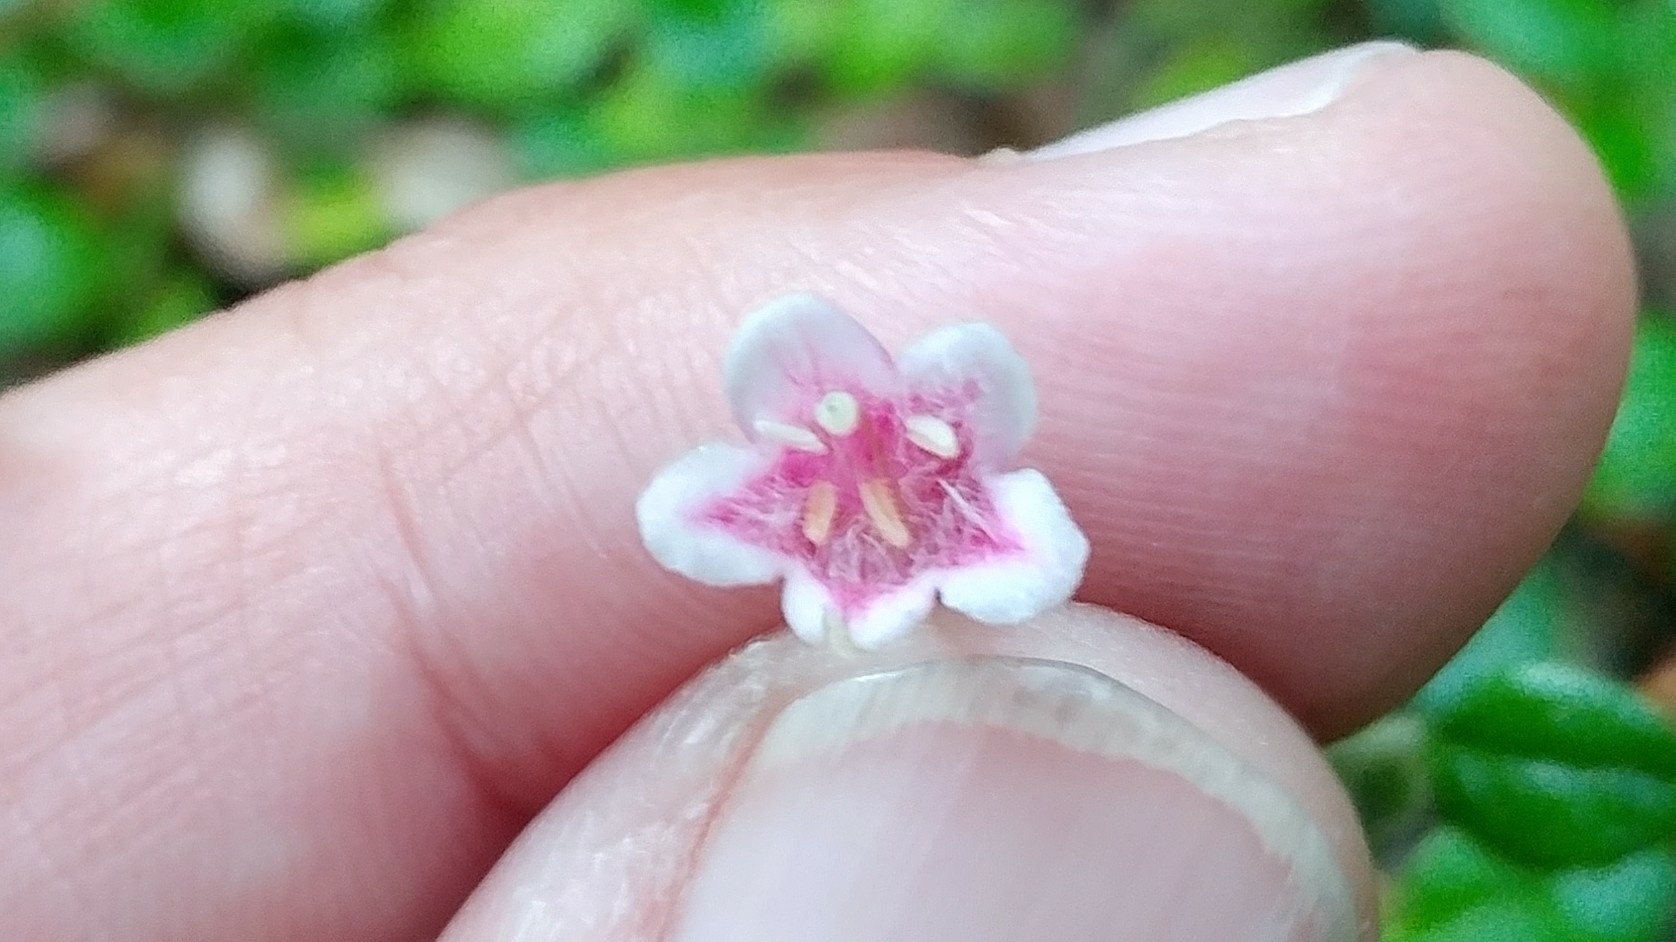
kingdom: Plantae
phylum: Tracheophyta
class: Magnoliopsida
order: Dipsacales
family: Caprifoliaceae
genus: Linnaea
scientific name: Linnaea borealis
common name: Twinflower
